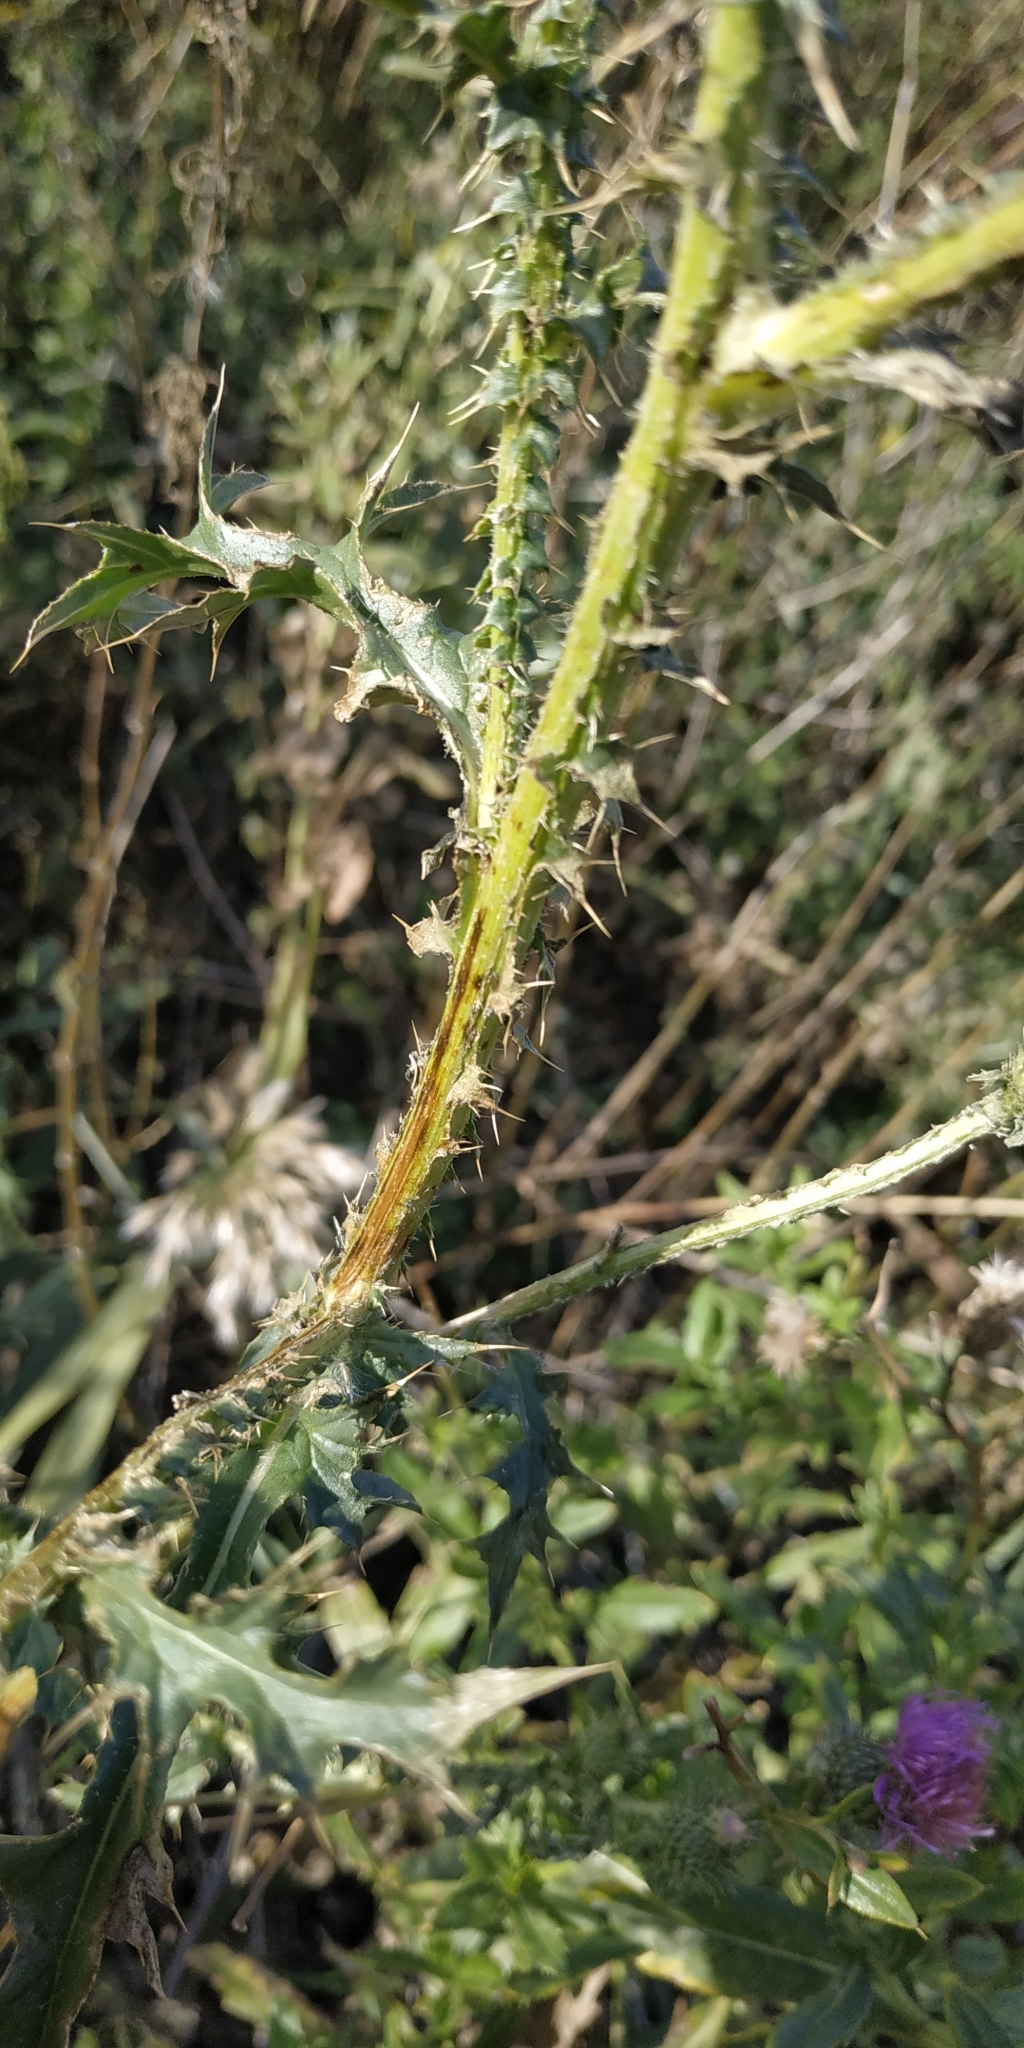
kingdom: Plantae
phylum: Tracheophyta
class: Magnoliopsida
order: Asterales
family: Asteraceae
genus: Cirsium
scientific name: Cirsium vulgare
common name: Bull thistle
